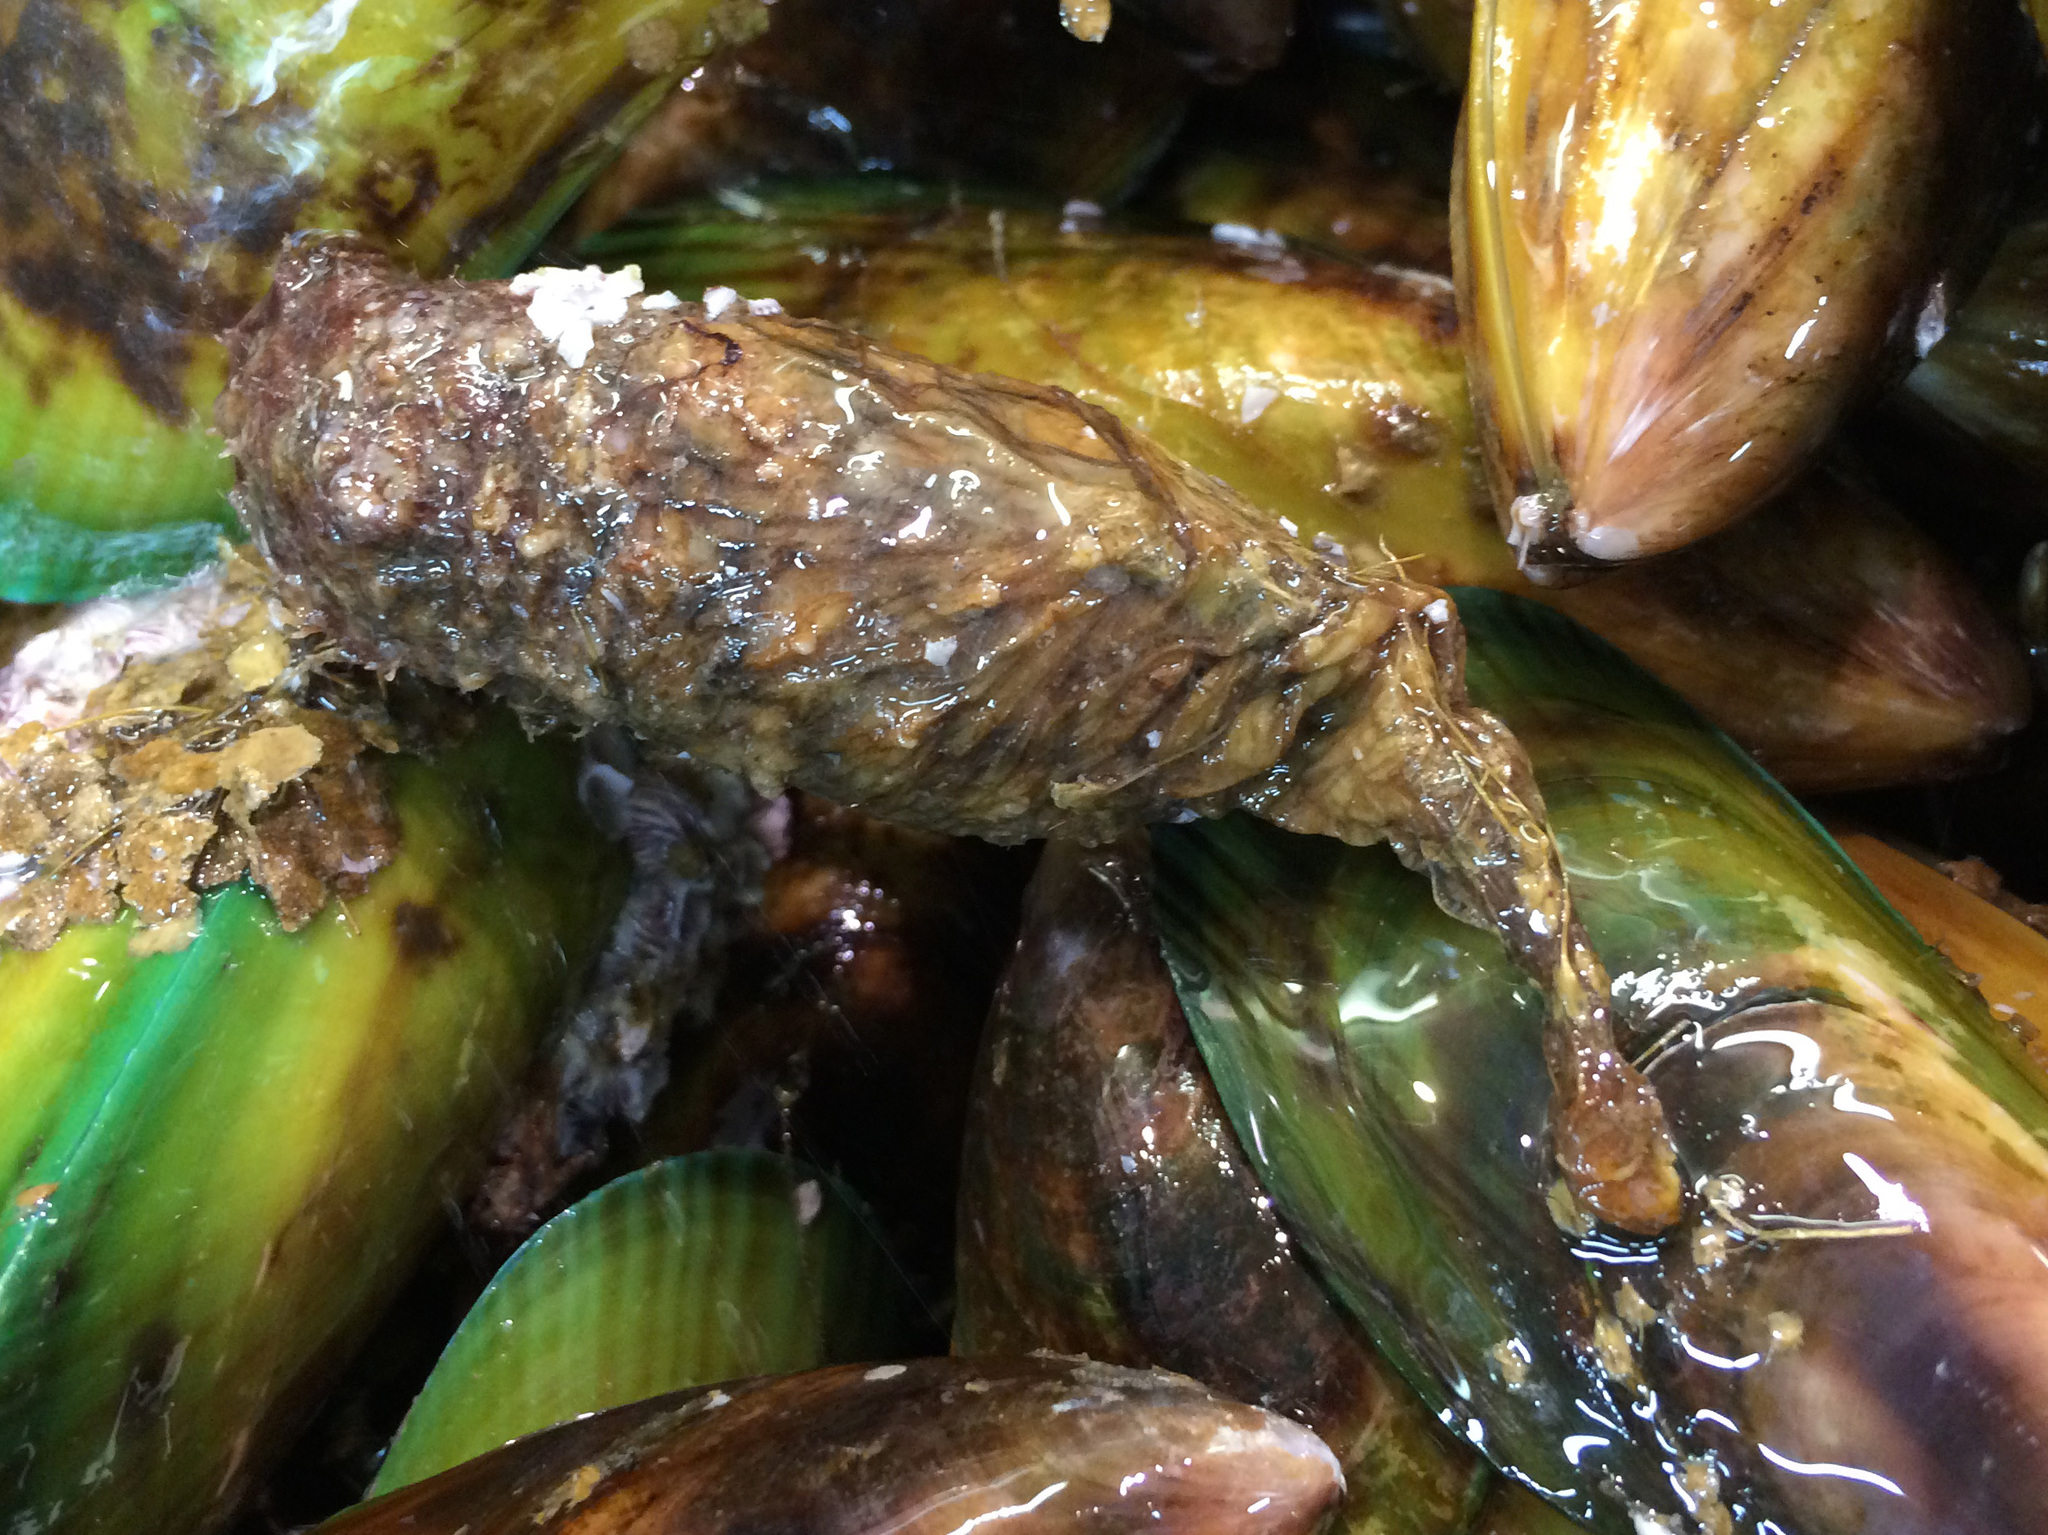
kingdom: Animalia
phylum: Chordata
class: Ascidiacea
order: Stolidobranchia
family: Styelidae
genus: Styela
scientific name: Styela clava
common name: Leathery sea squirt
